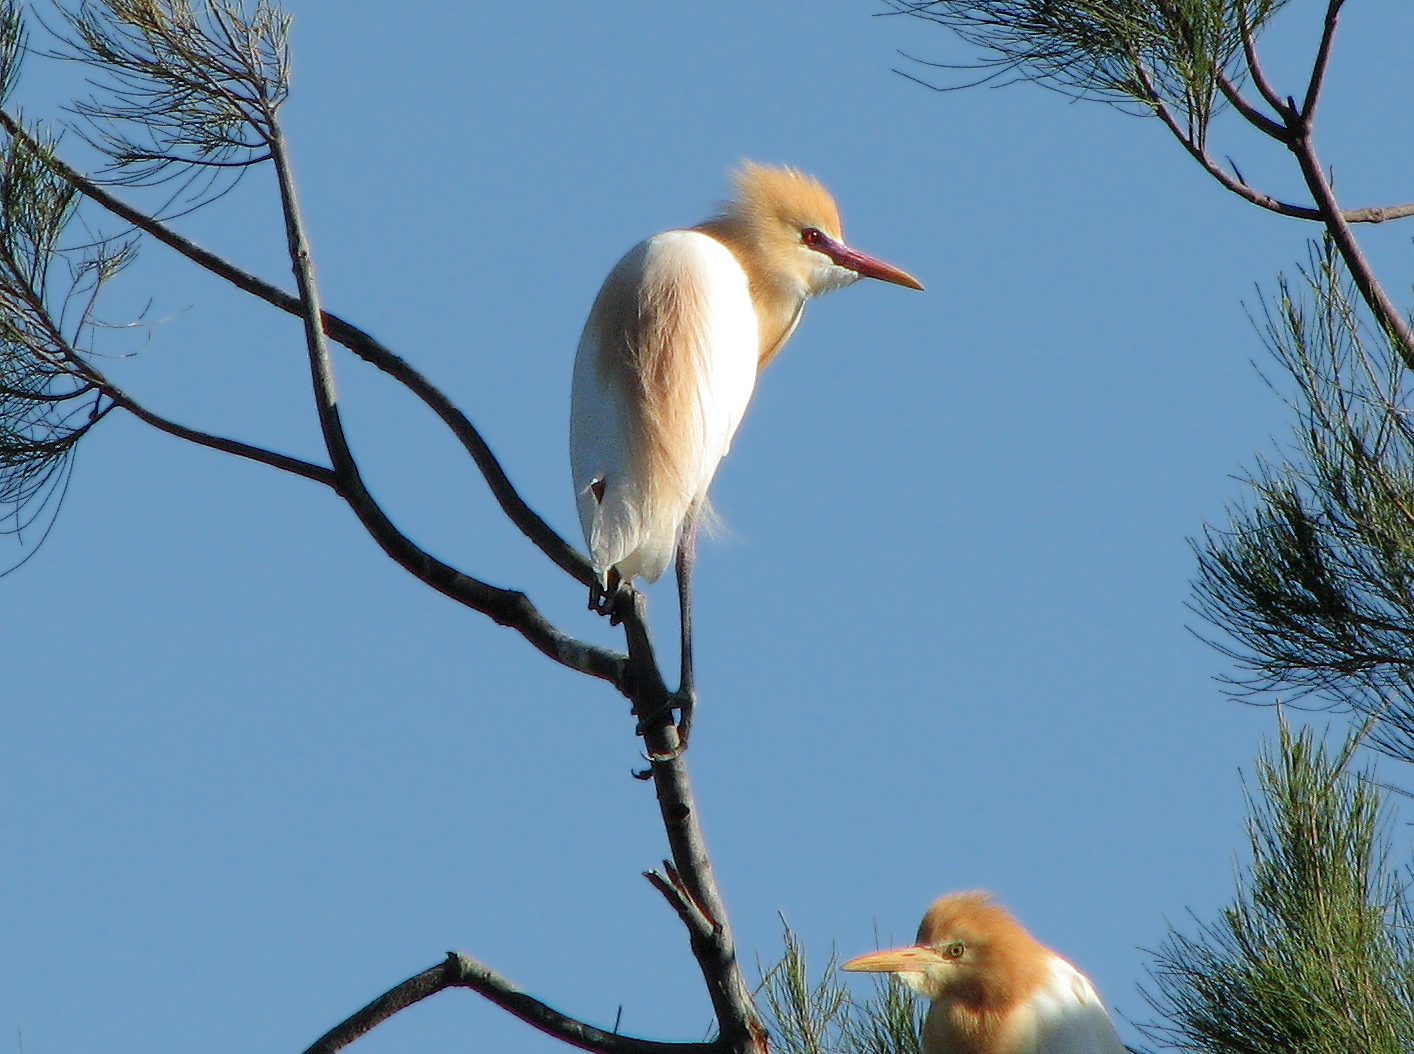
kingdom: Animalia
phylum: Chordata
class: Aves
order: Pelecaniformes
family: Ardeidae
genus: Bubulcus
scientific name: Bubulcus coromandus
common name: Eastern cattle egret
